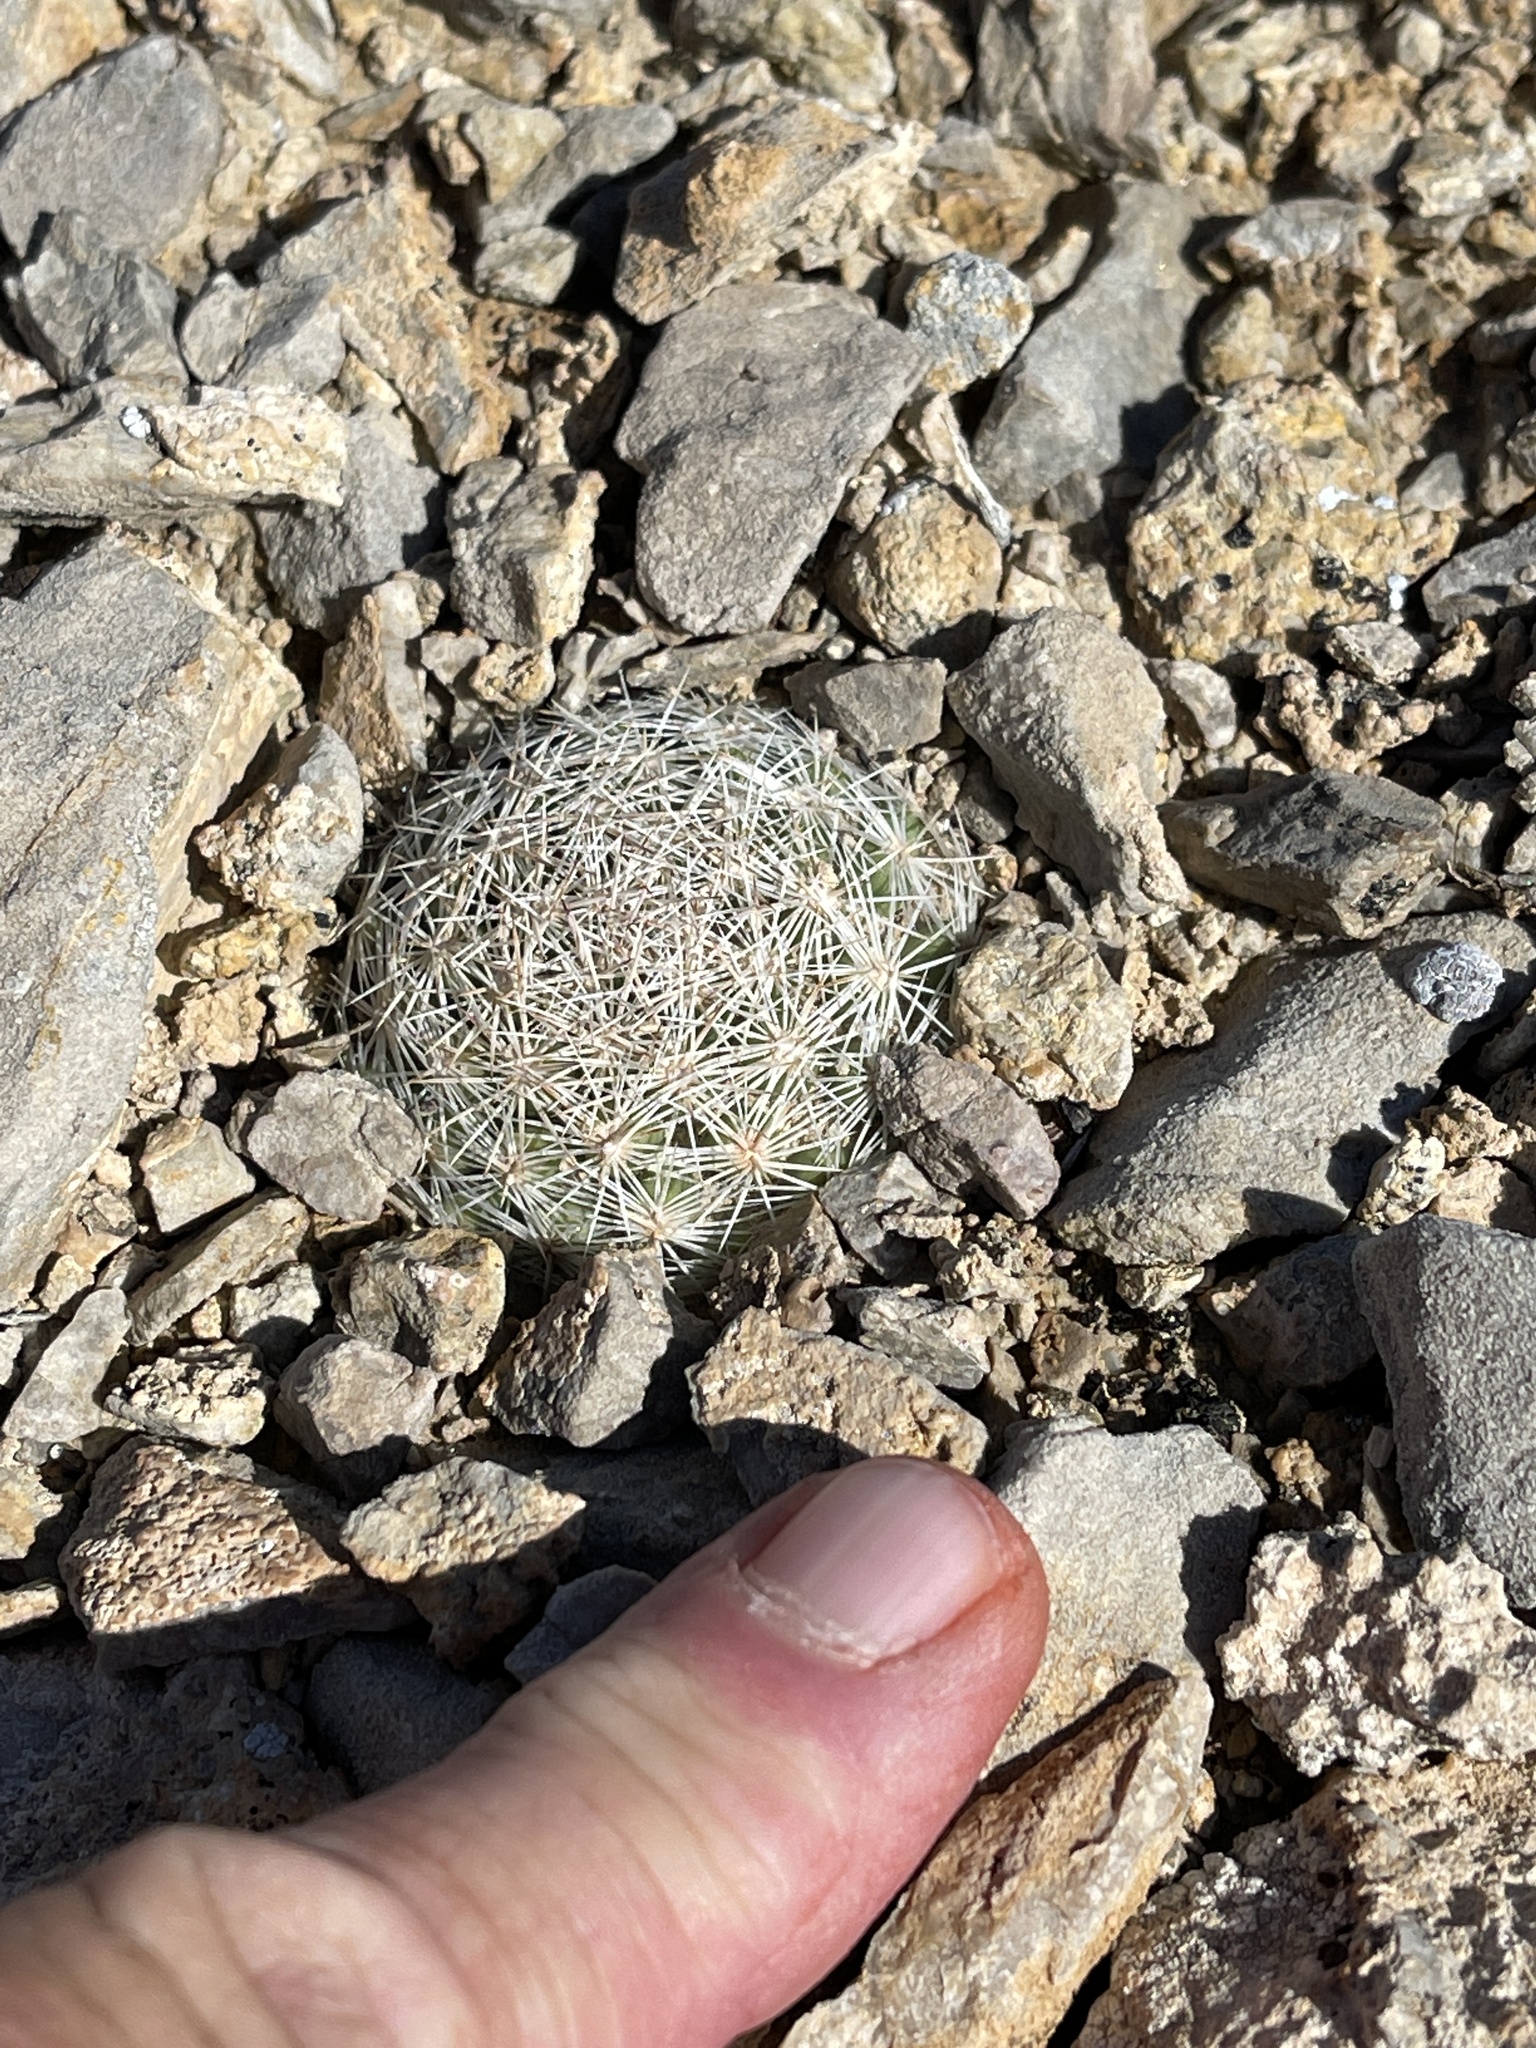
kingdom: Plantae
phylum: Tracheophyta
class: Magnoliopsida
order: Caryophyllales
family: Cactaceae
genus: Pelecyphora
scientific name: Pelecyphora vivipara
